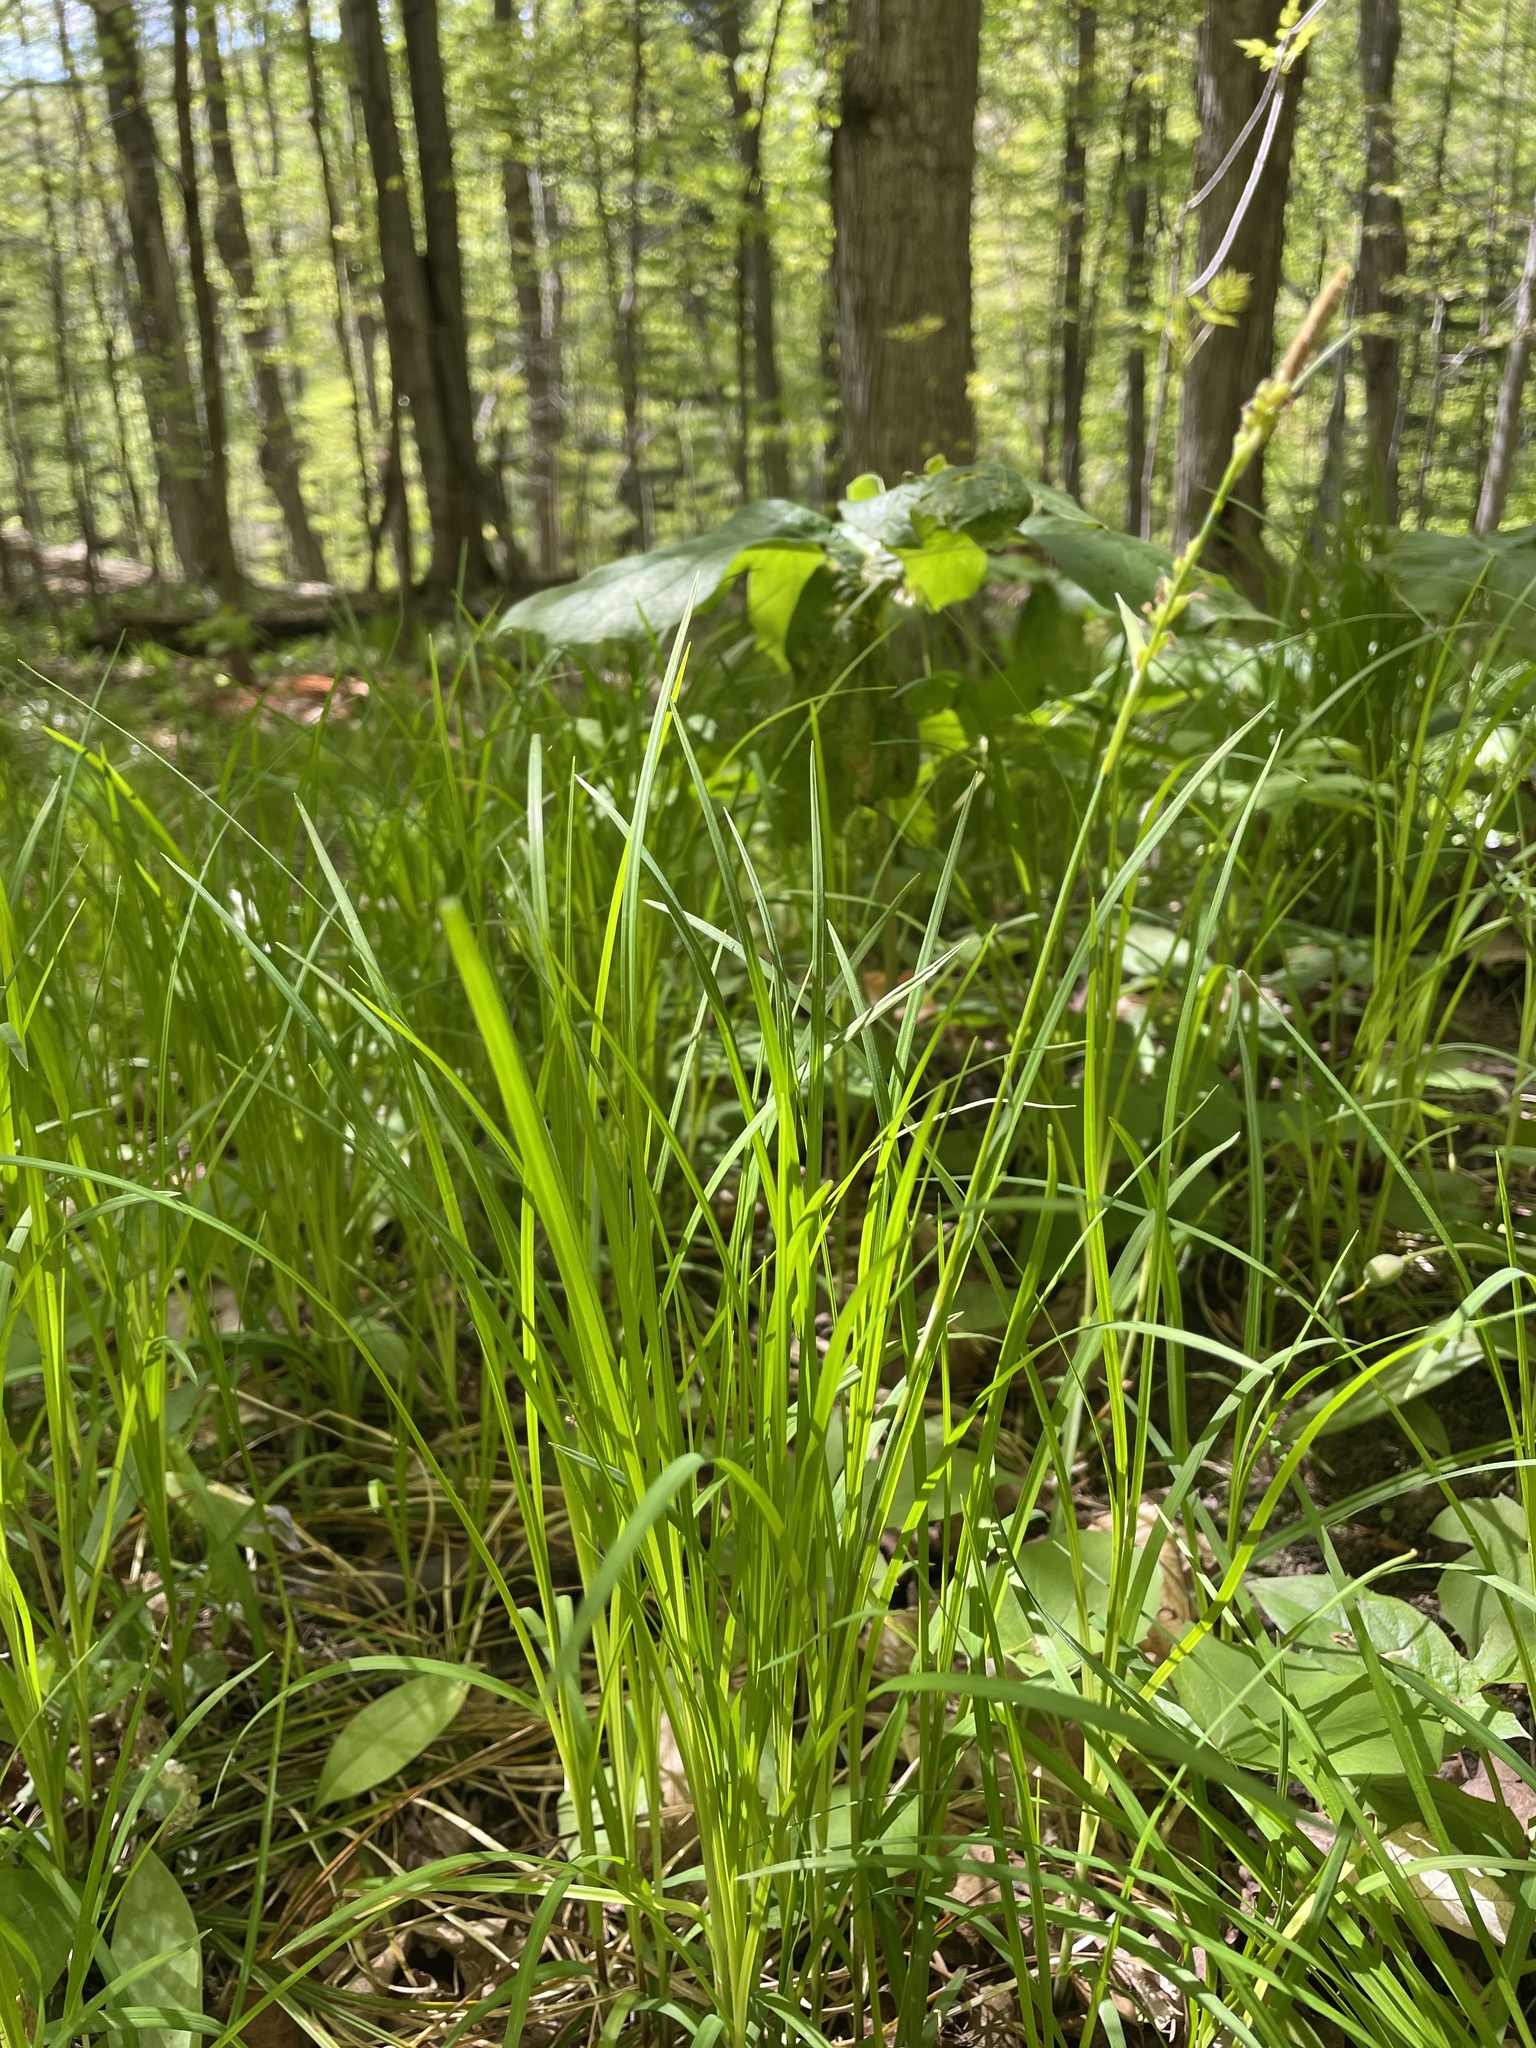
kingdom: Plantae
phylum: Tracheophyta
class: Liliopsida
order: Poales
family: Cyperaceae
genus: Carex
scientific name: Carex woodii
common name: Wood's sedge
